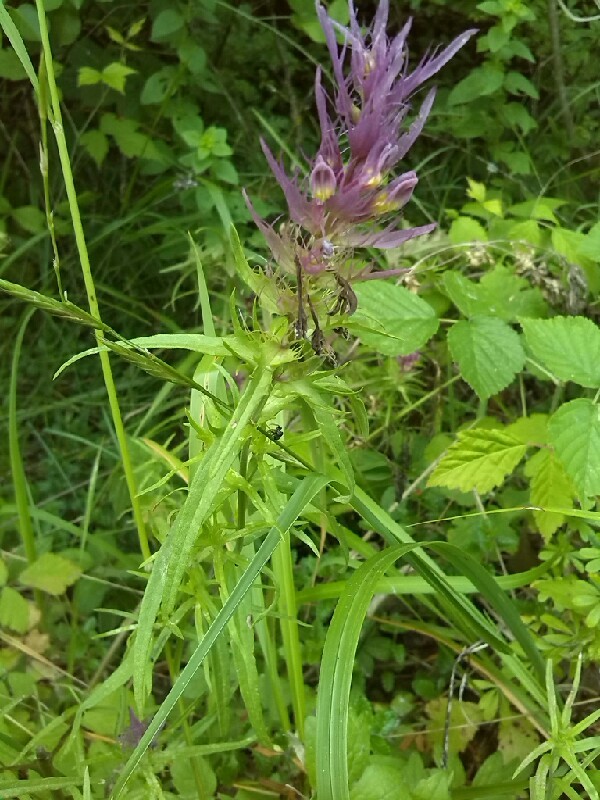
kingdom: Plantae
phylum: Tracheophyta
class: Magnoliopsida
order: Lamiales
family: Orobanchaceae
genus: Melampyrum
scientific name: Melampyrum arvense
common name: Field cow-wheat
